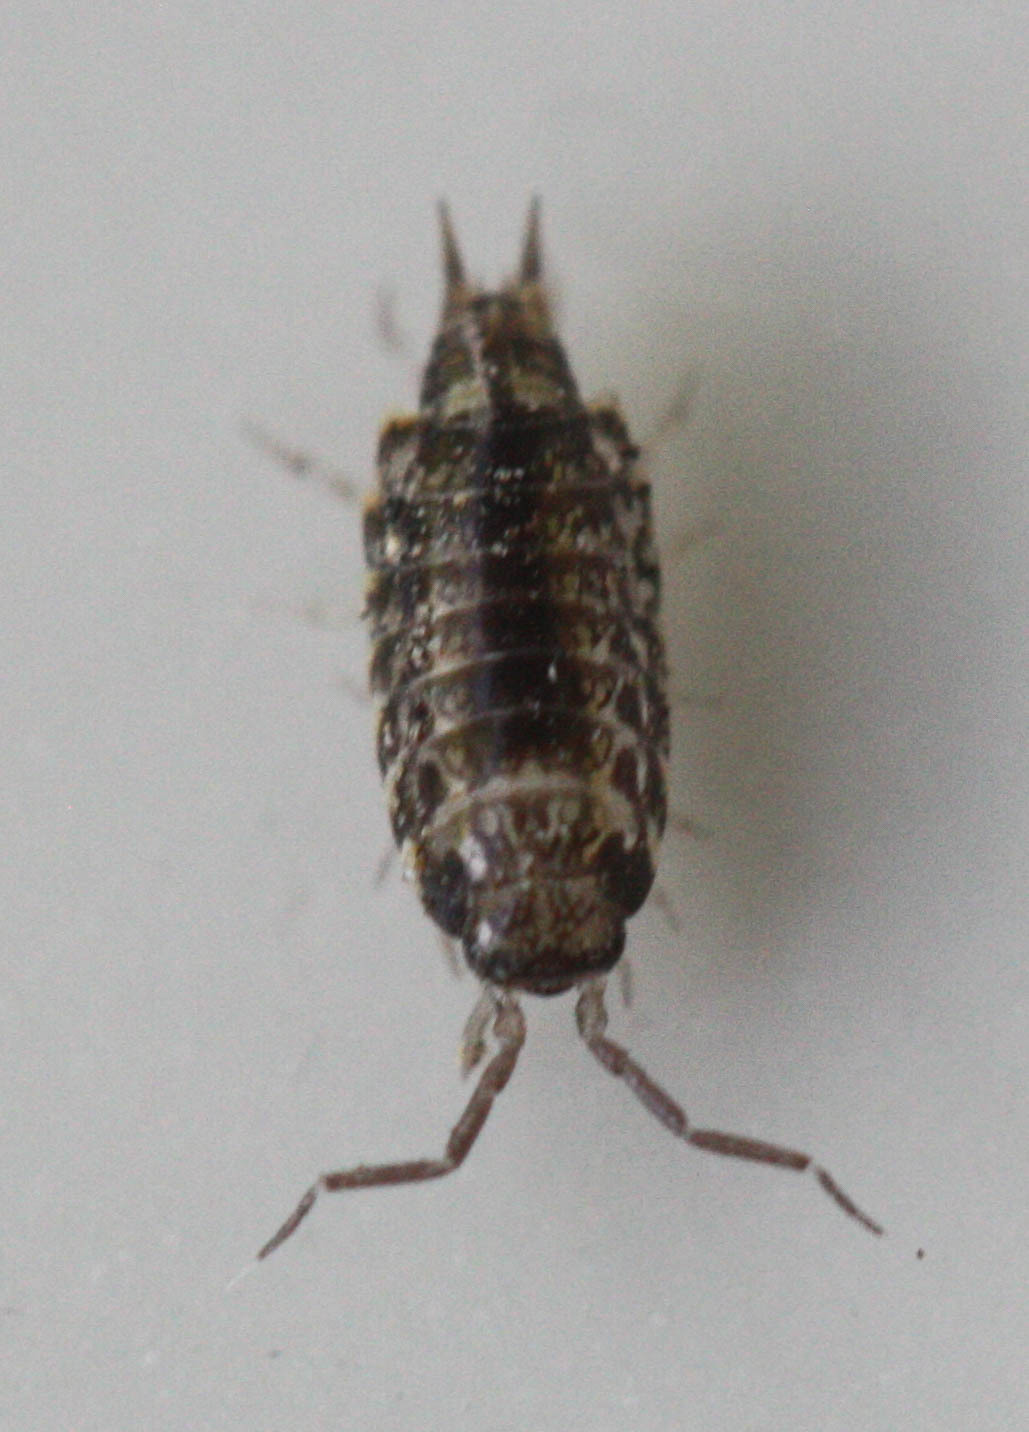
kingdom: Animalia
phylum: Arthropoda
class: Malacostraca
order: Isopoda
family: Philosciidae
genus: Australophiloscia
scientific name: Australophiloscia societatis
